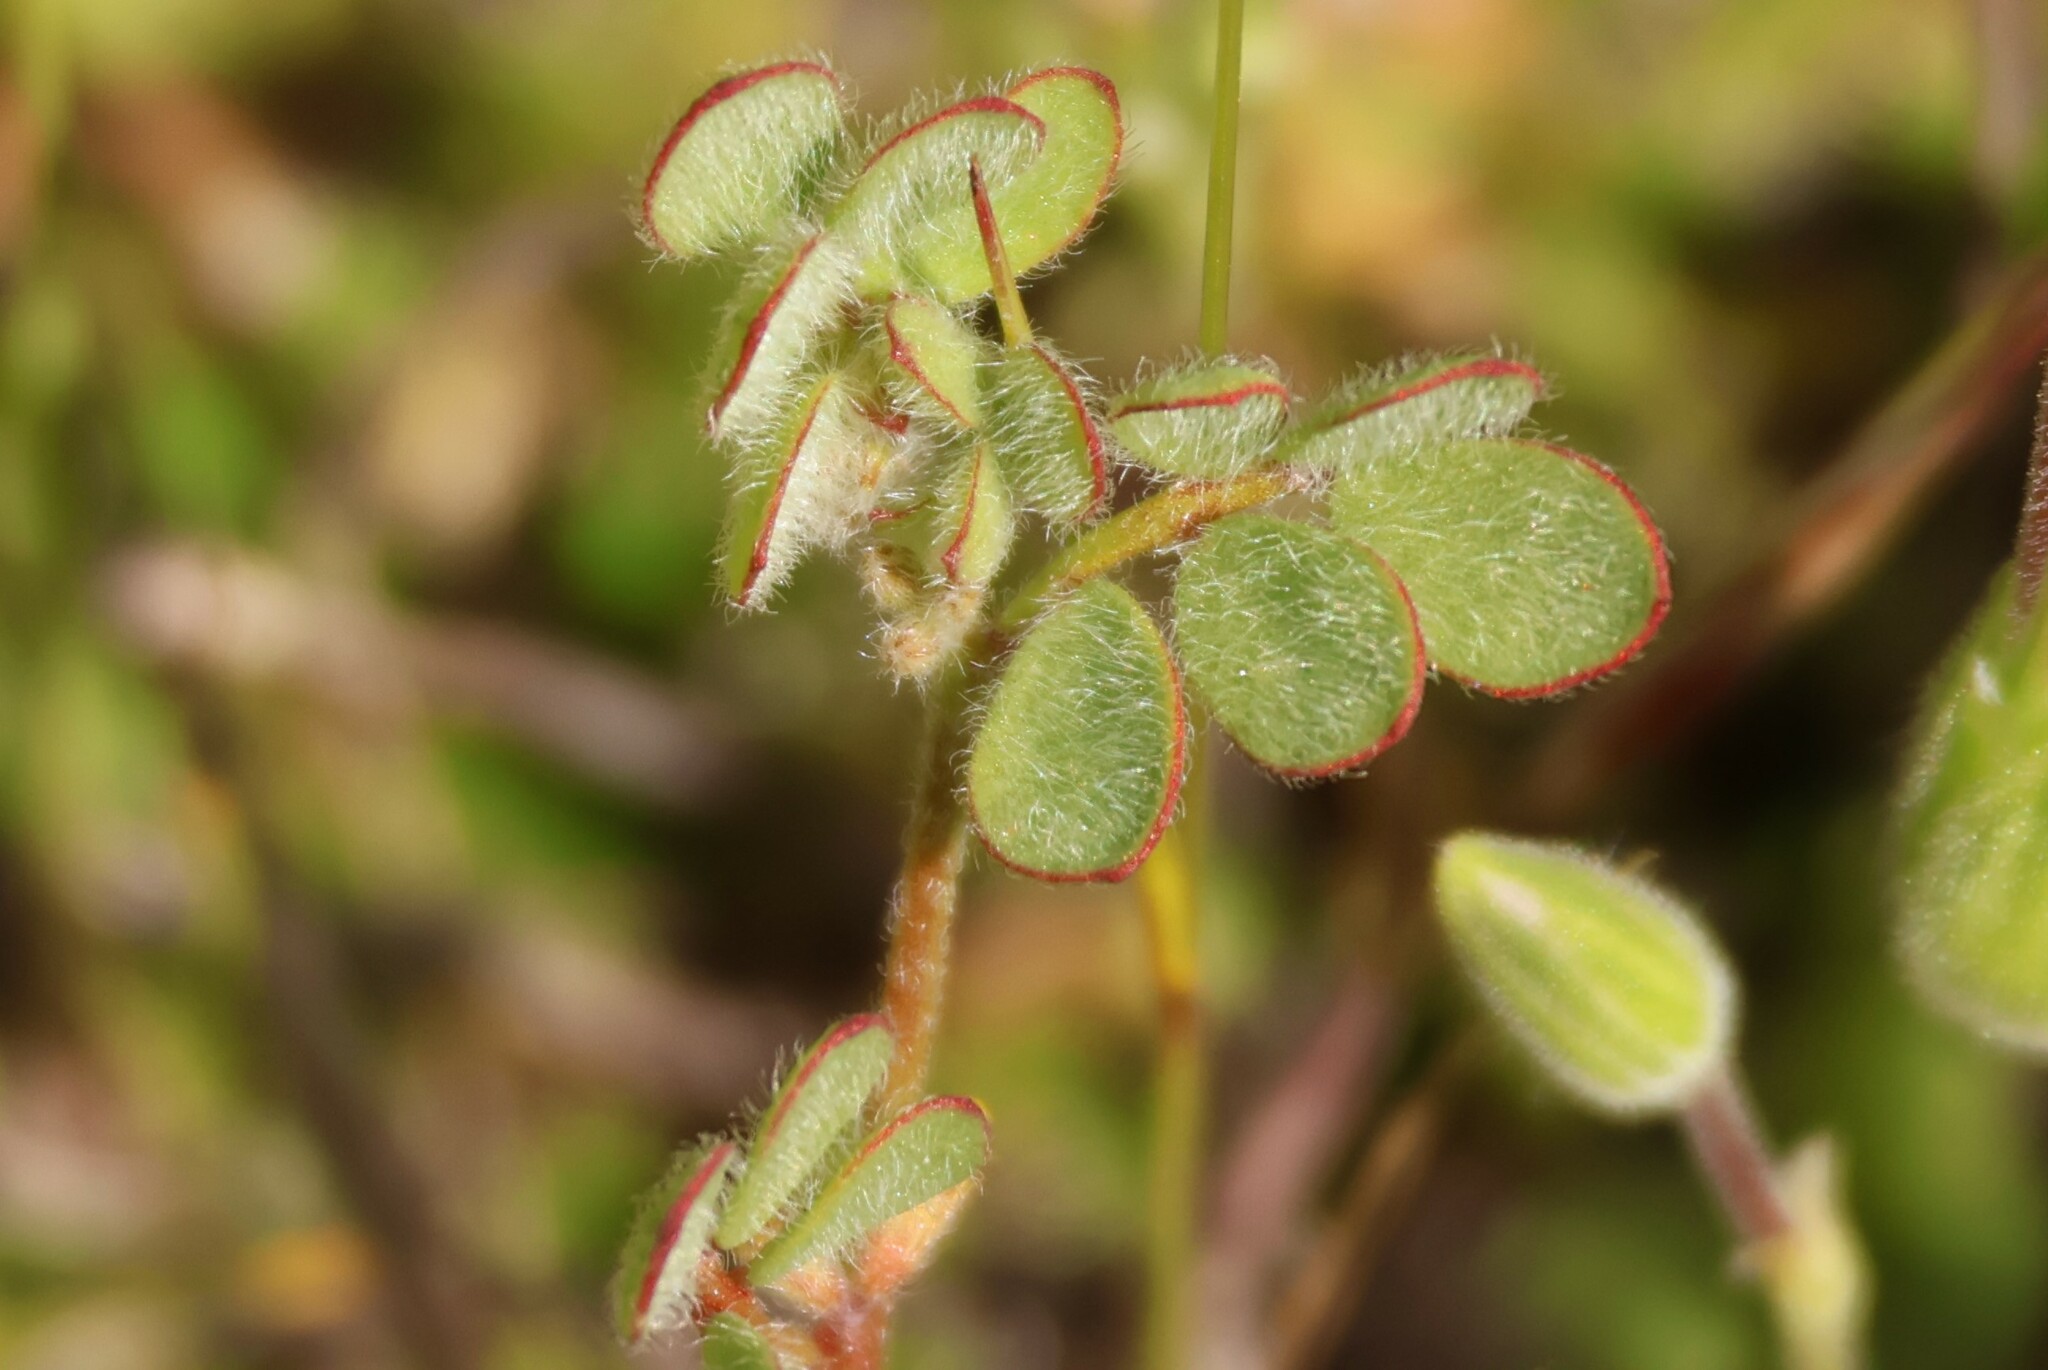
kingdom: Plantae
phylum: Tracheophyta
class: Magnoliopsida
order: Fabales
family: Fabaceae
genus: Acmispon
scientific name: Acmispon micranthus
